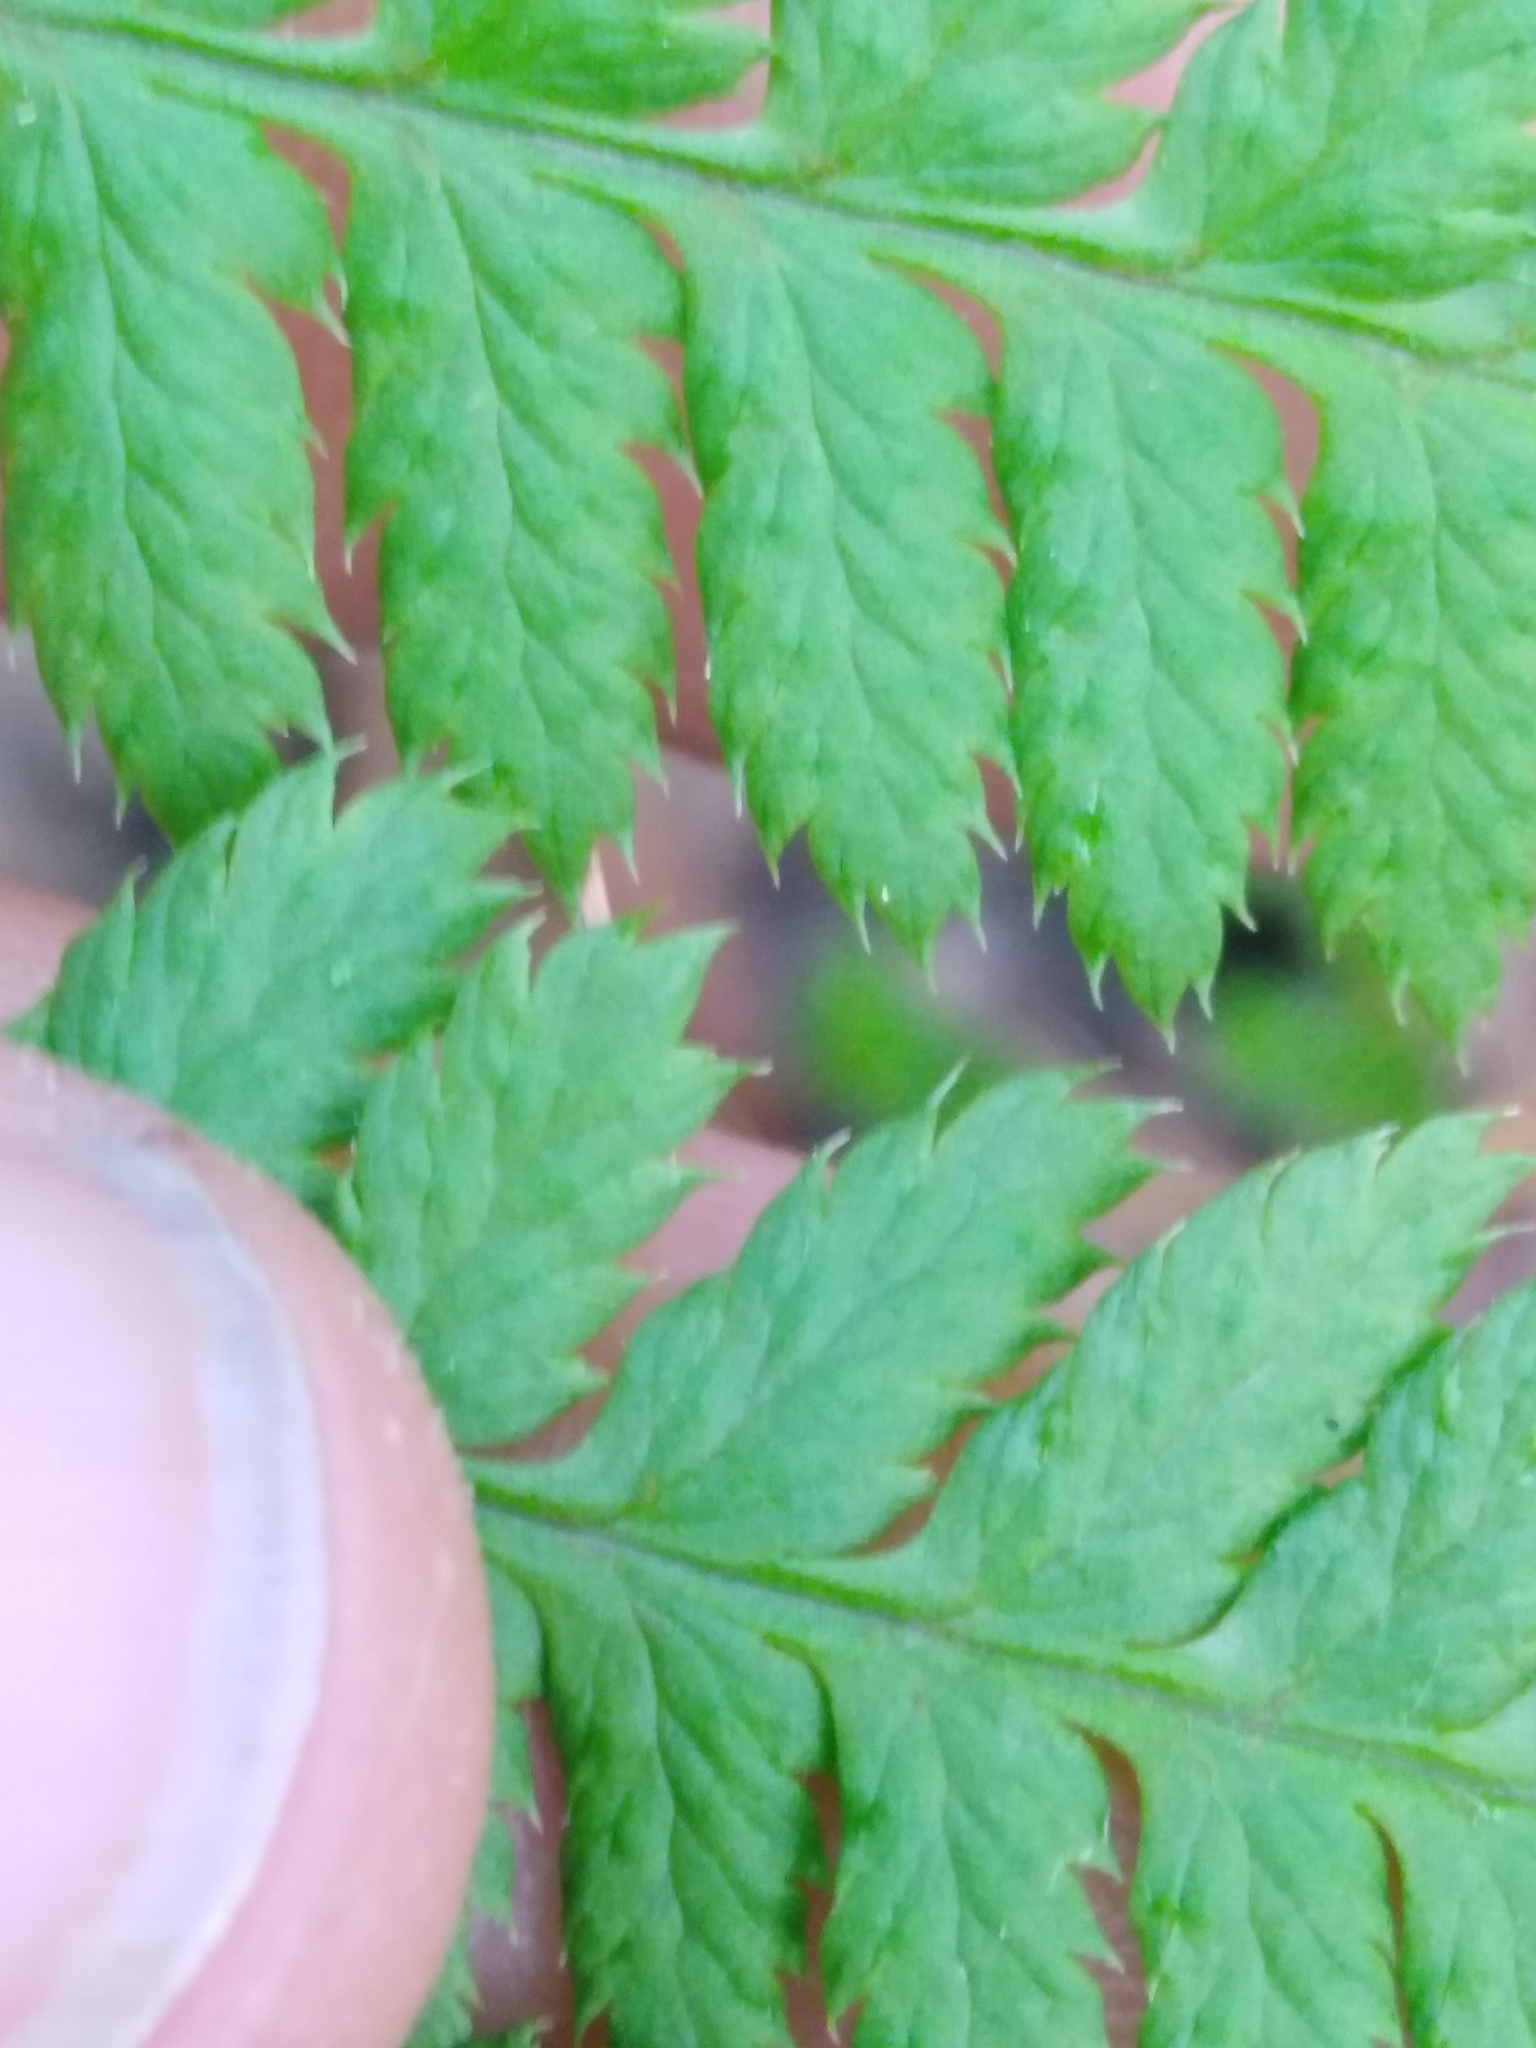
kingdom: Plantae
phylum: Tracheophyta
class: Polypodiopsida
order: Polypodiales
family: Dryopteridaceae
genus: Dryopteris
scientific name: Dryopteris carthusiana
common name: Narrow buckler-fern
